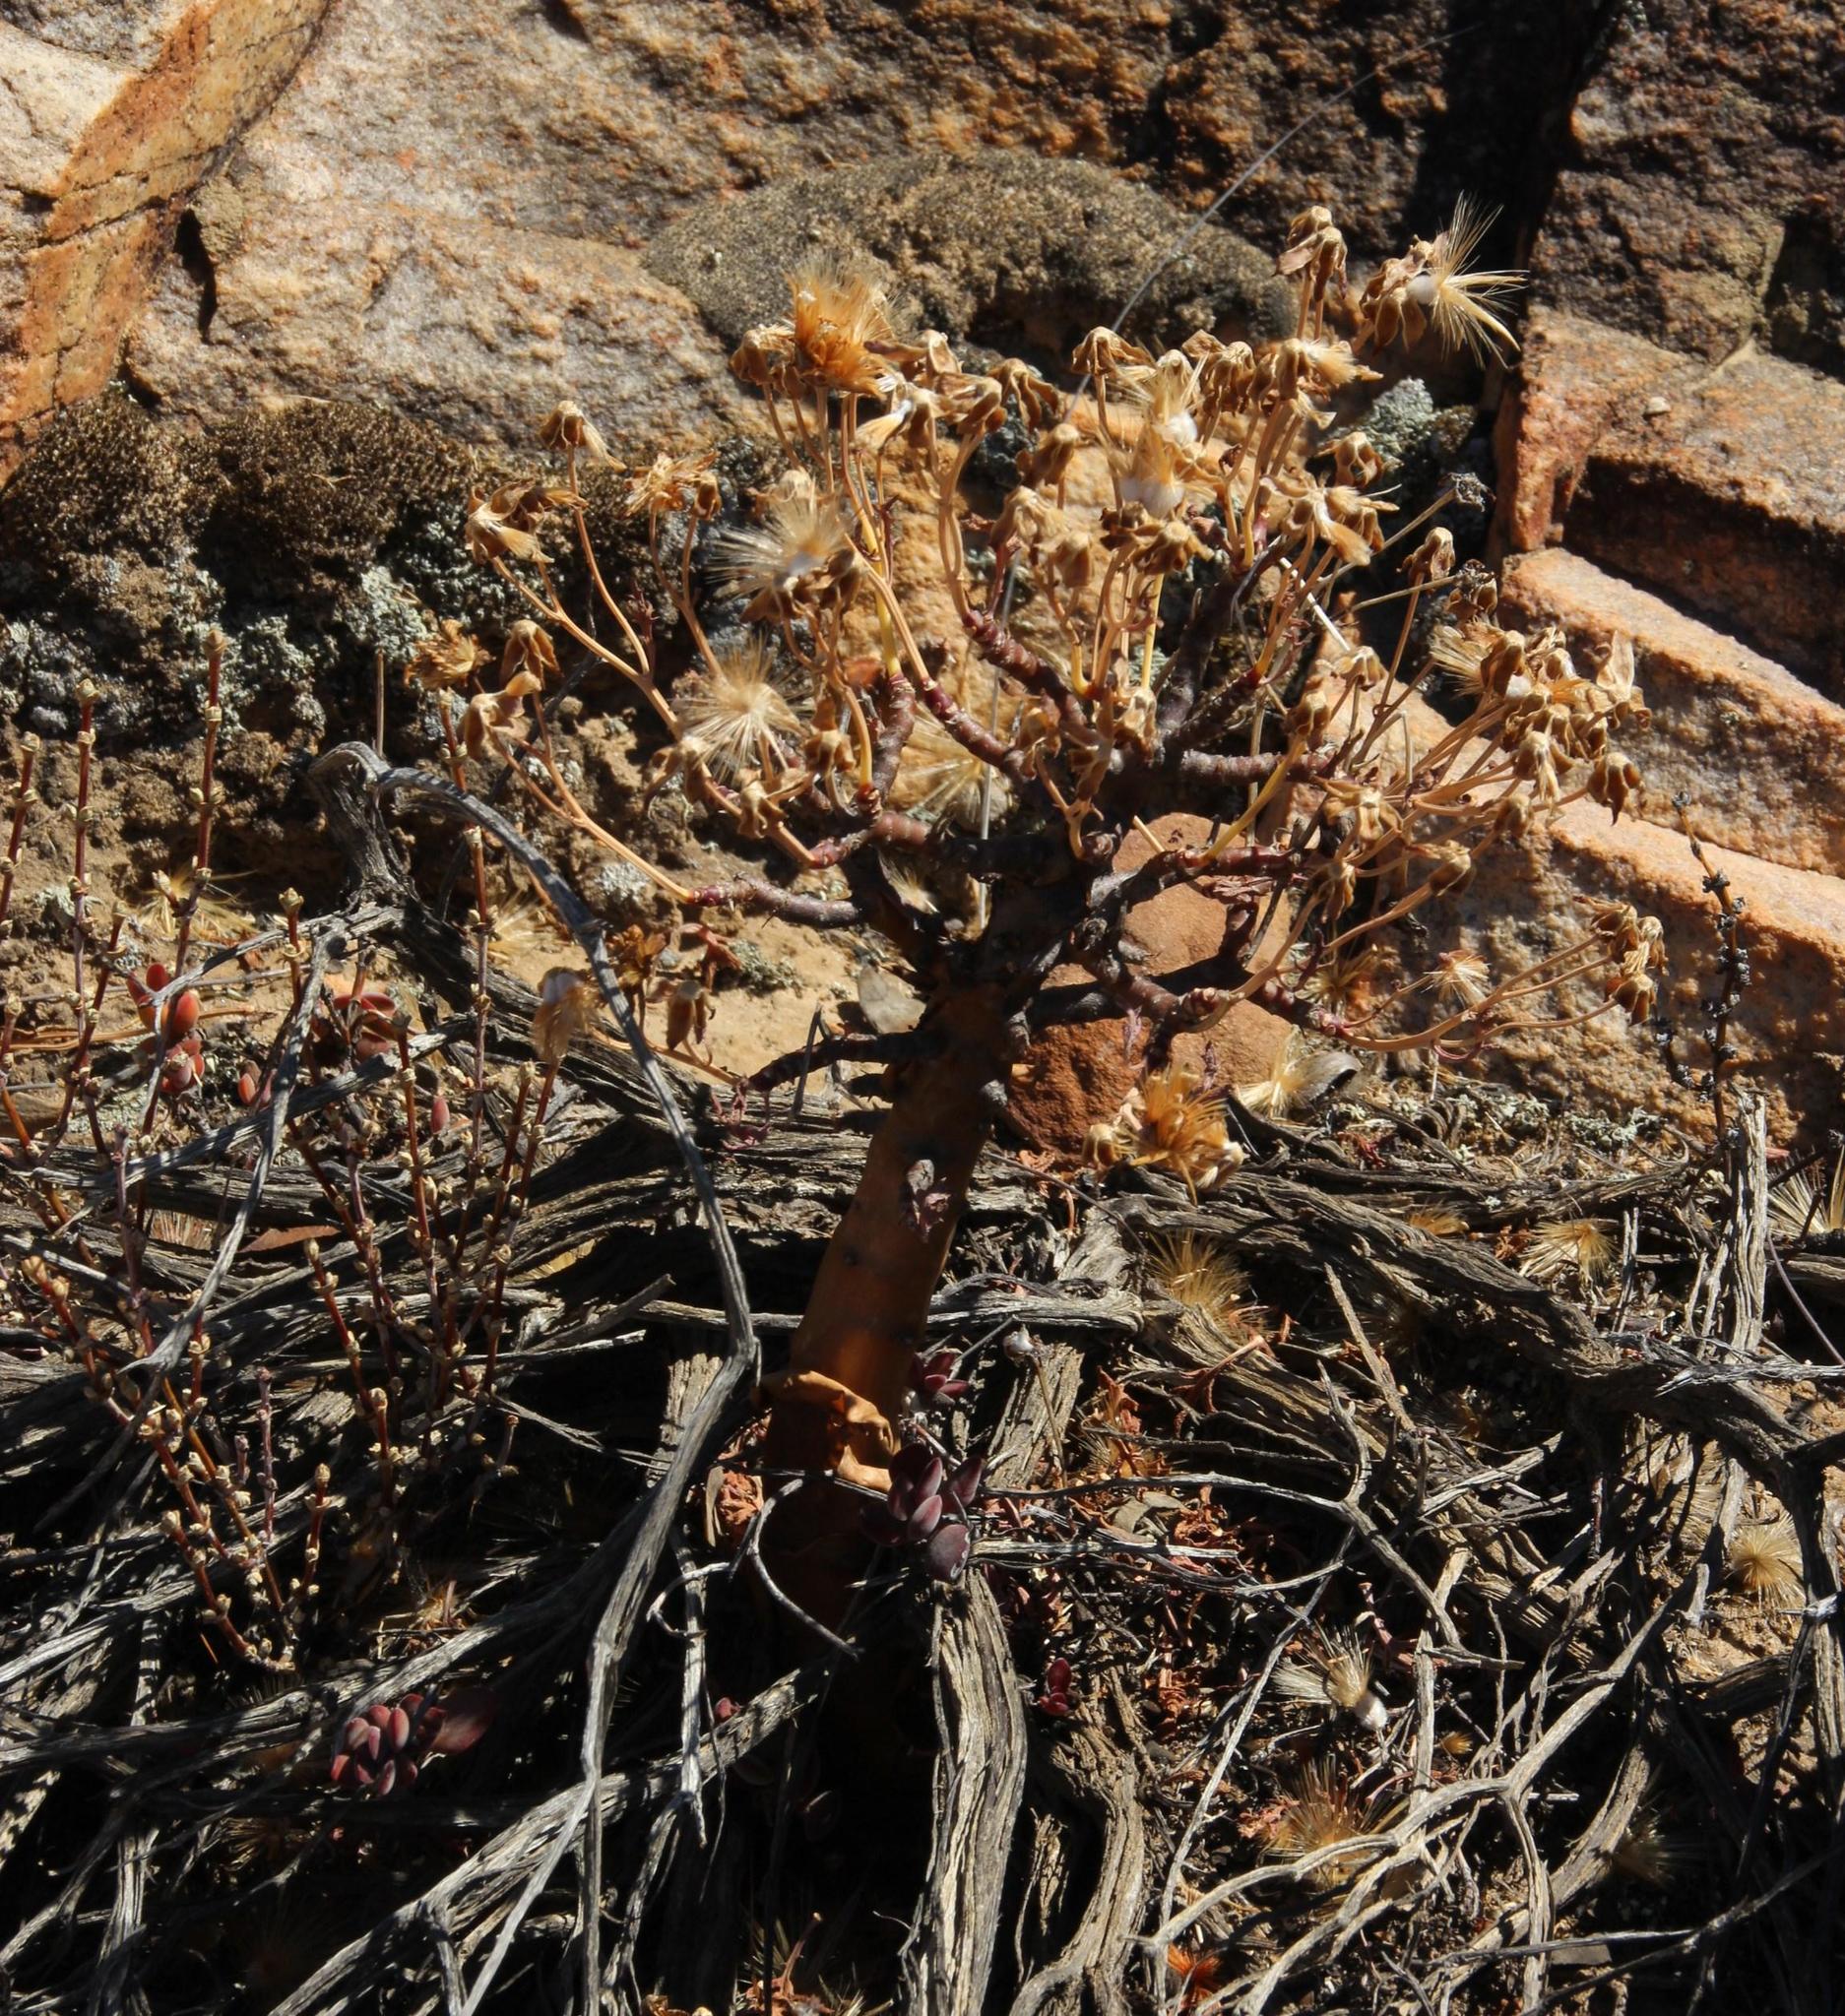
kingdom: Plantae
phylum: Tracheophyta
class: Magnoliopsida
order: Asterales
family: Asteraceae
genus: Othonna
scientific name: Othonna pumilio
